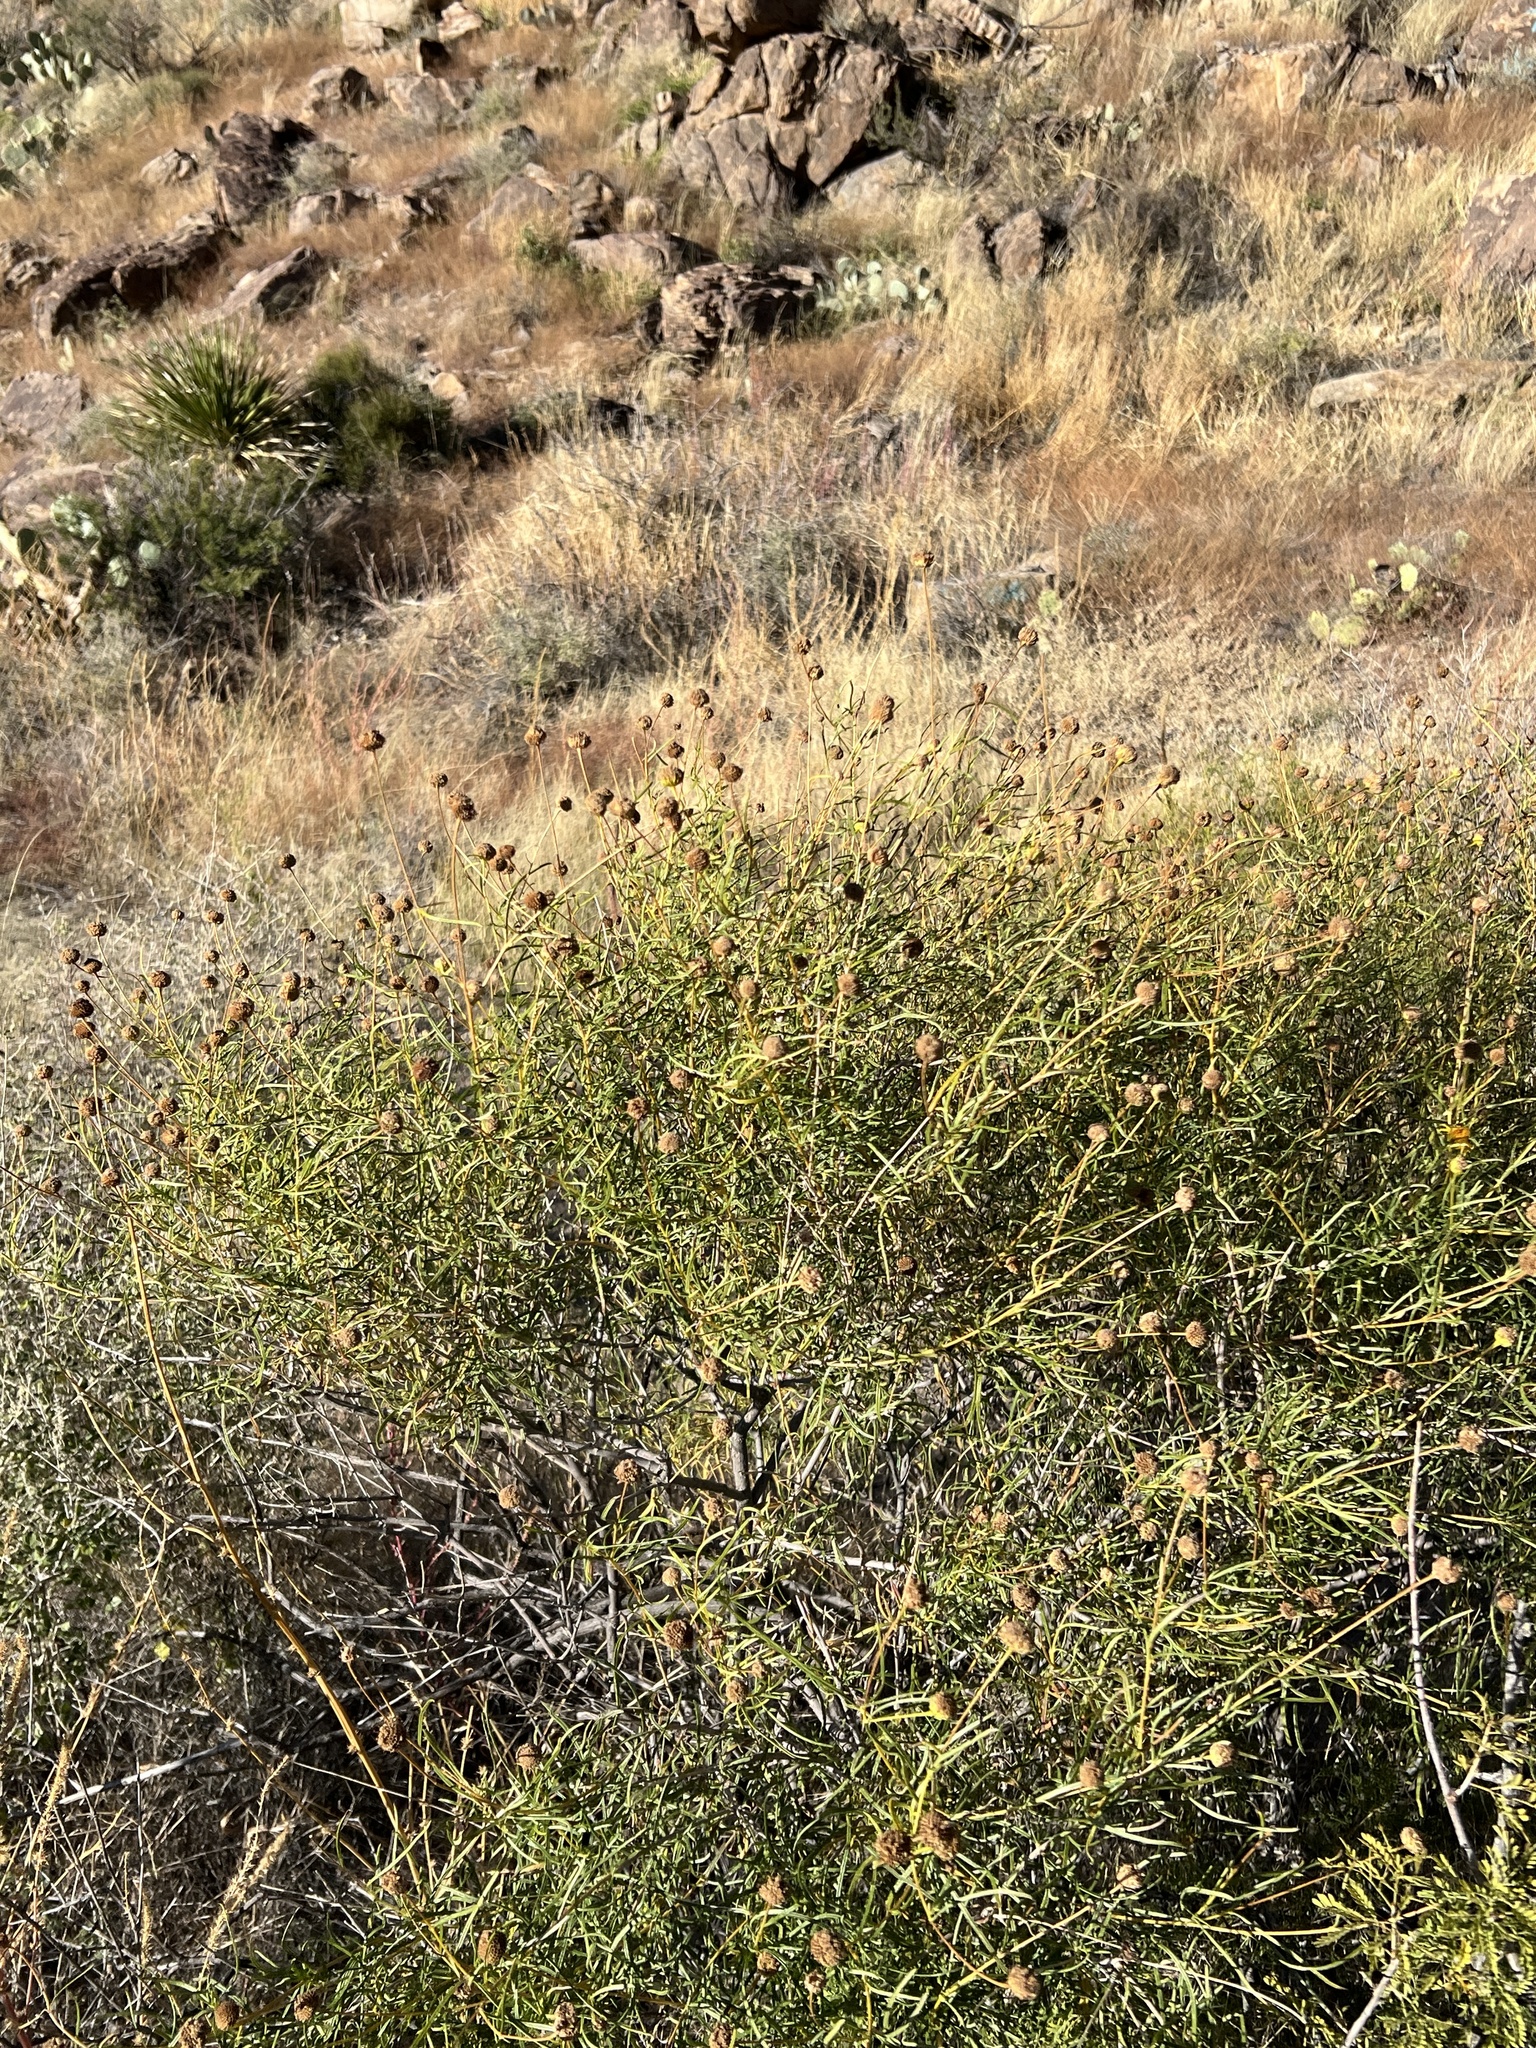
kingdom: Plantae
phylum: Tracheophyta
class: Magnoliopsida
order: Asterales
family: Asteraceae
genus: Sidneya
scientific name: Sidneya tenuifolia
